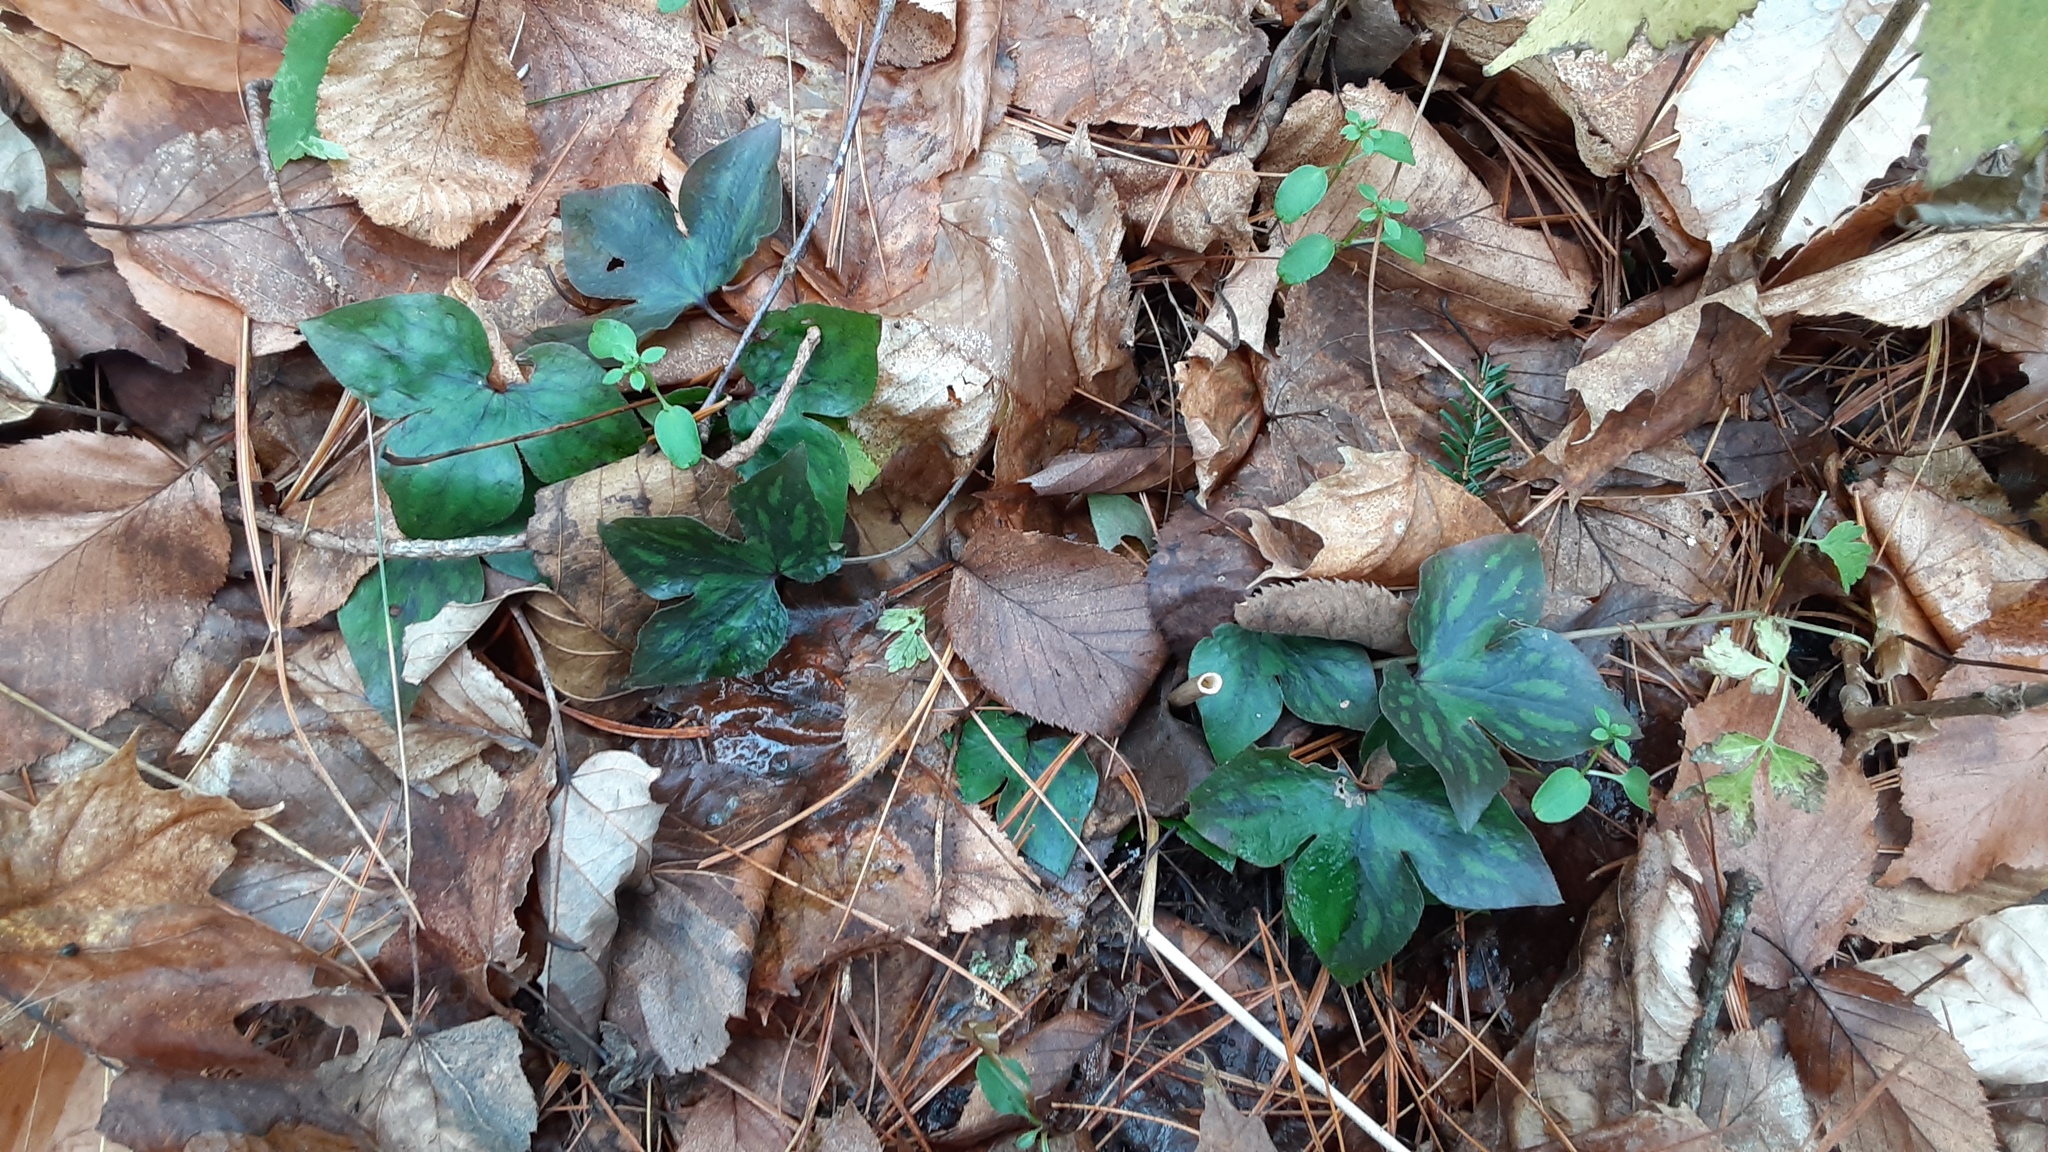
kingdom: Plantae
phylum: Tracheophyta
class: Magnoliopsida
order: Ranunculales
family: Ranunculaceae
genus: Hepatica
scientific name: Hepatica acutiloba
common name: Sharp-lobed hepatica
